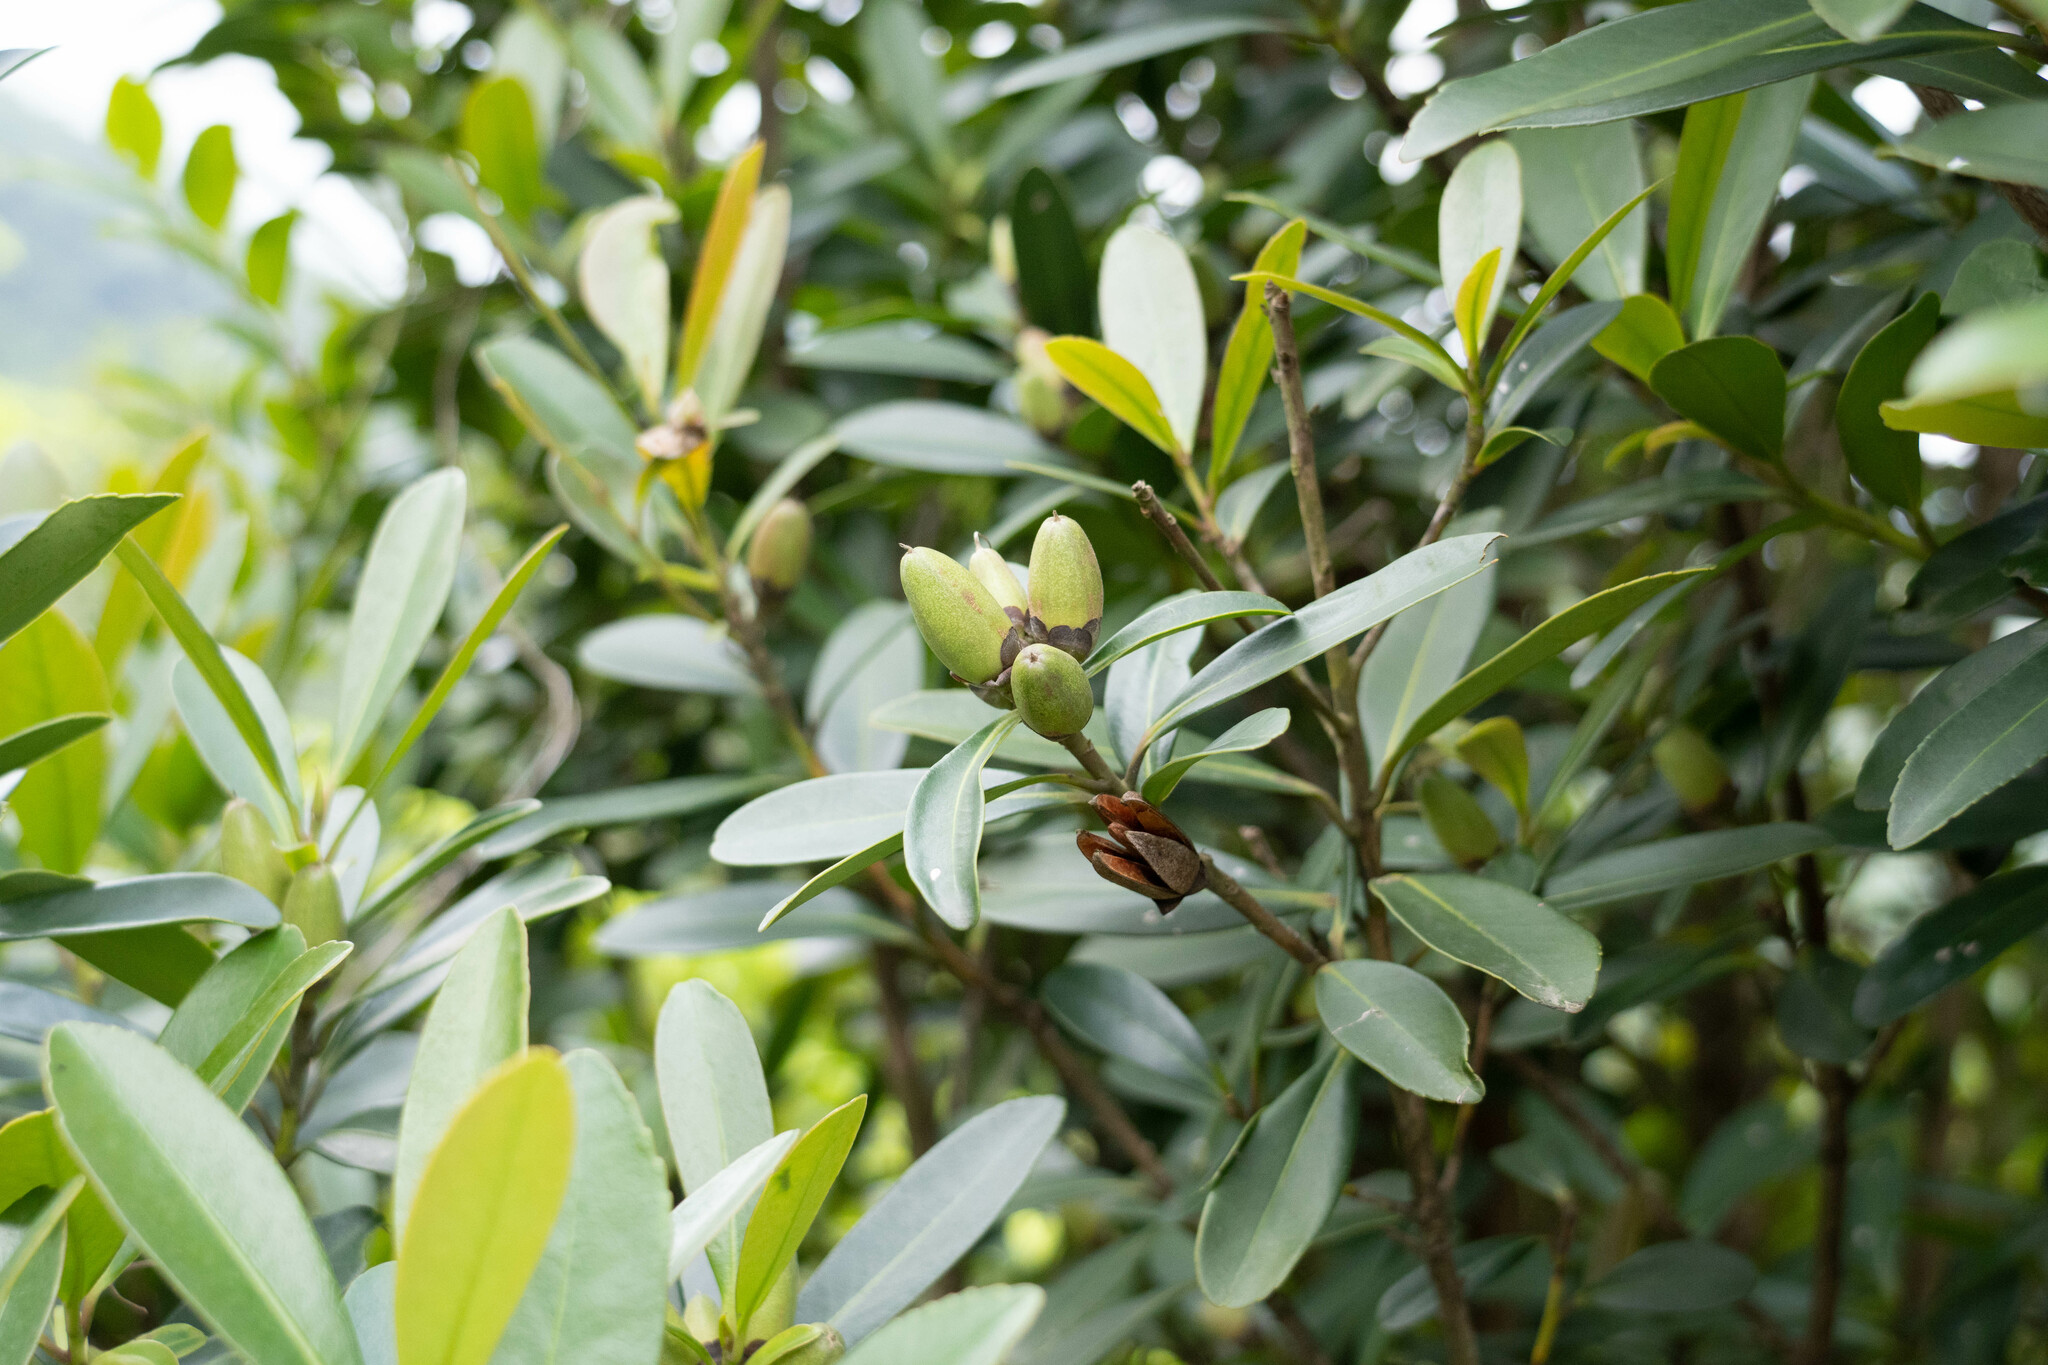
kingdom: Plantae
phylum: Tracheophyta
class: Magnoliopsida
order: Ericales
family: Theaceae
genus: Polyspora
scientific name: Polyspora axillaris
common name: Fried egg tree
